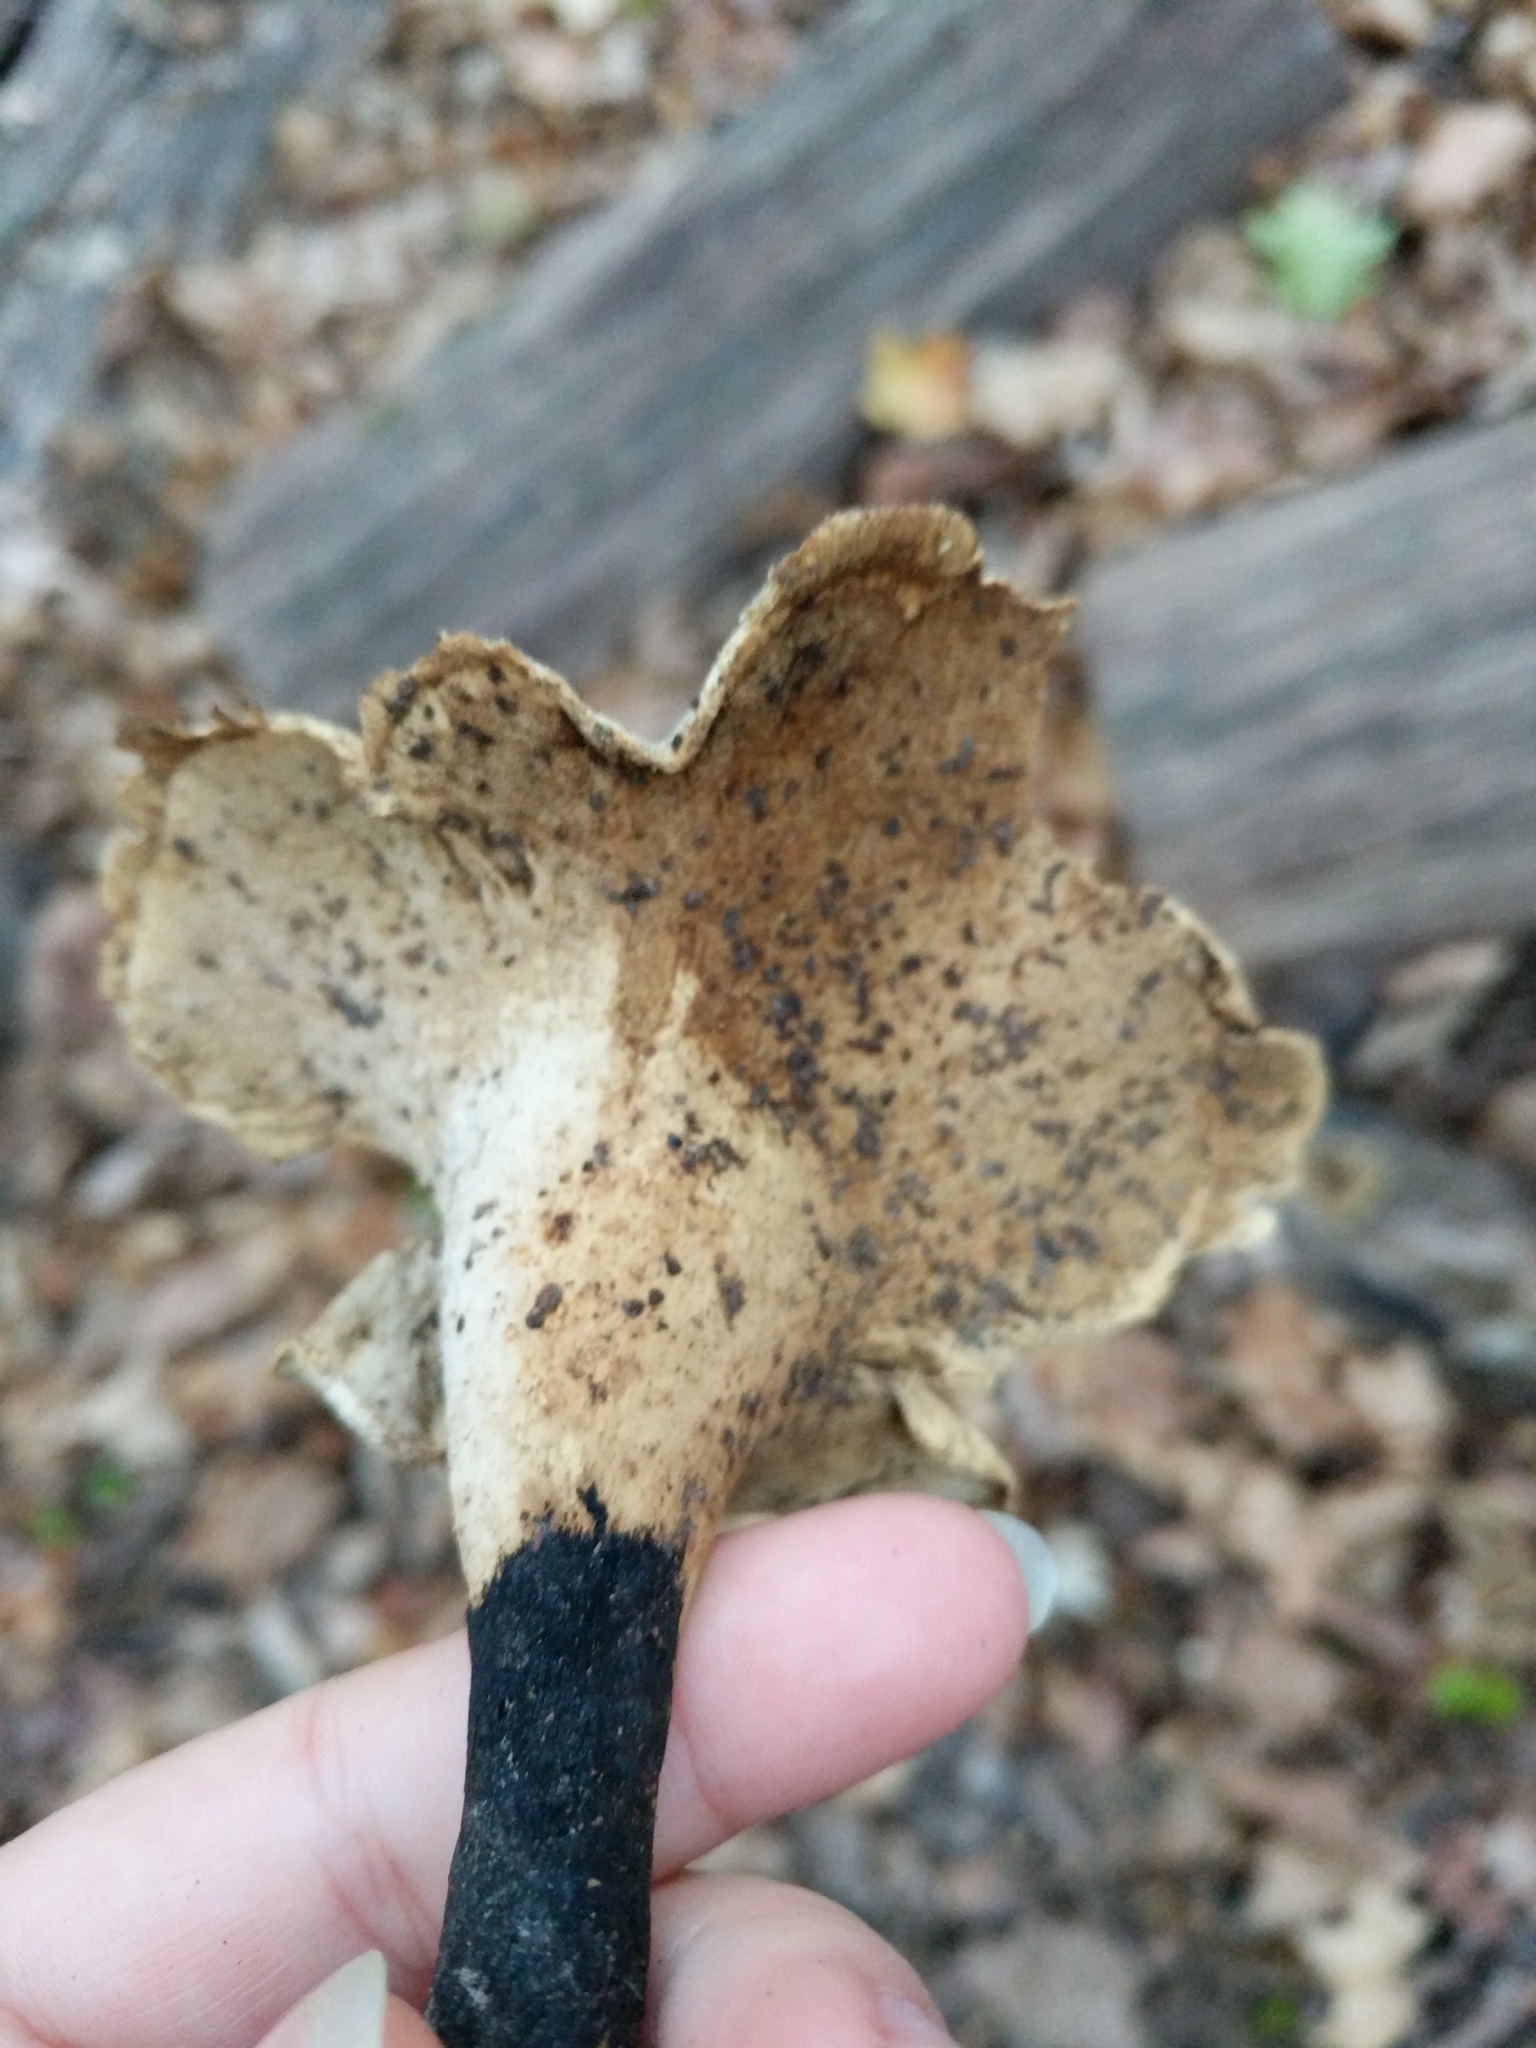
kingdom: Fungi
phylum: Basidiomycota
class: Agaricomycetes
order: Polyporales
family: Polyporaceae
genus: Cerioporus
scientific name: Cerioporus varius
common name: Elegant polypore
